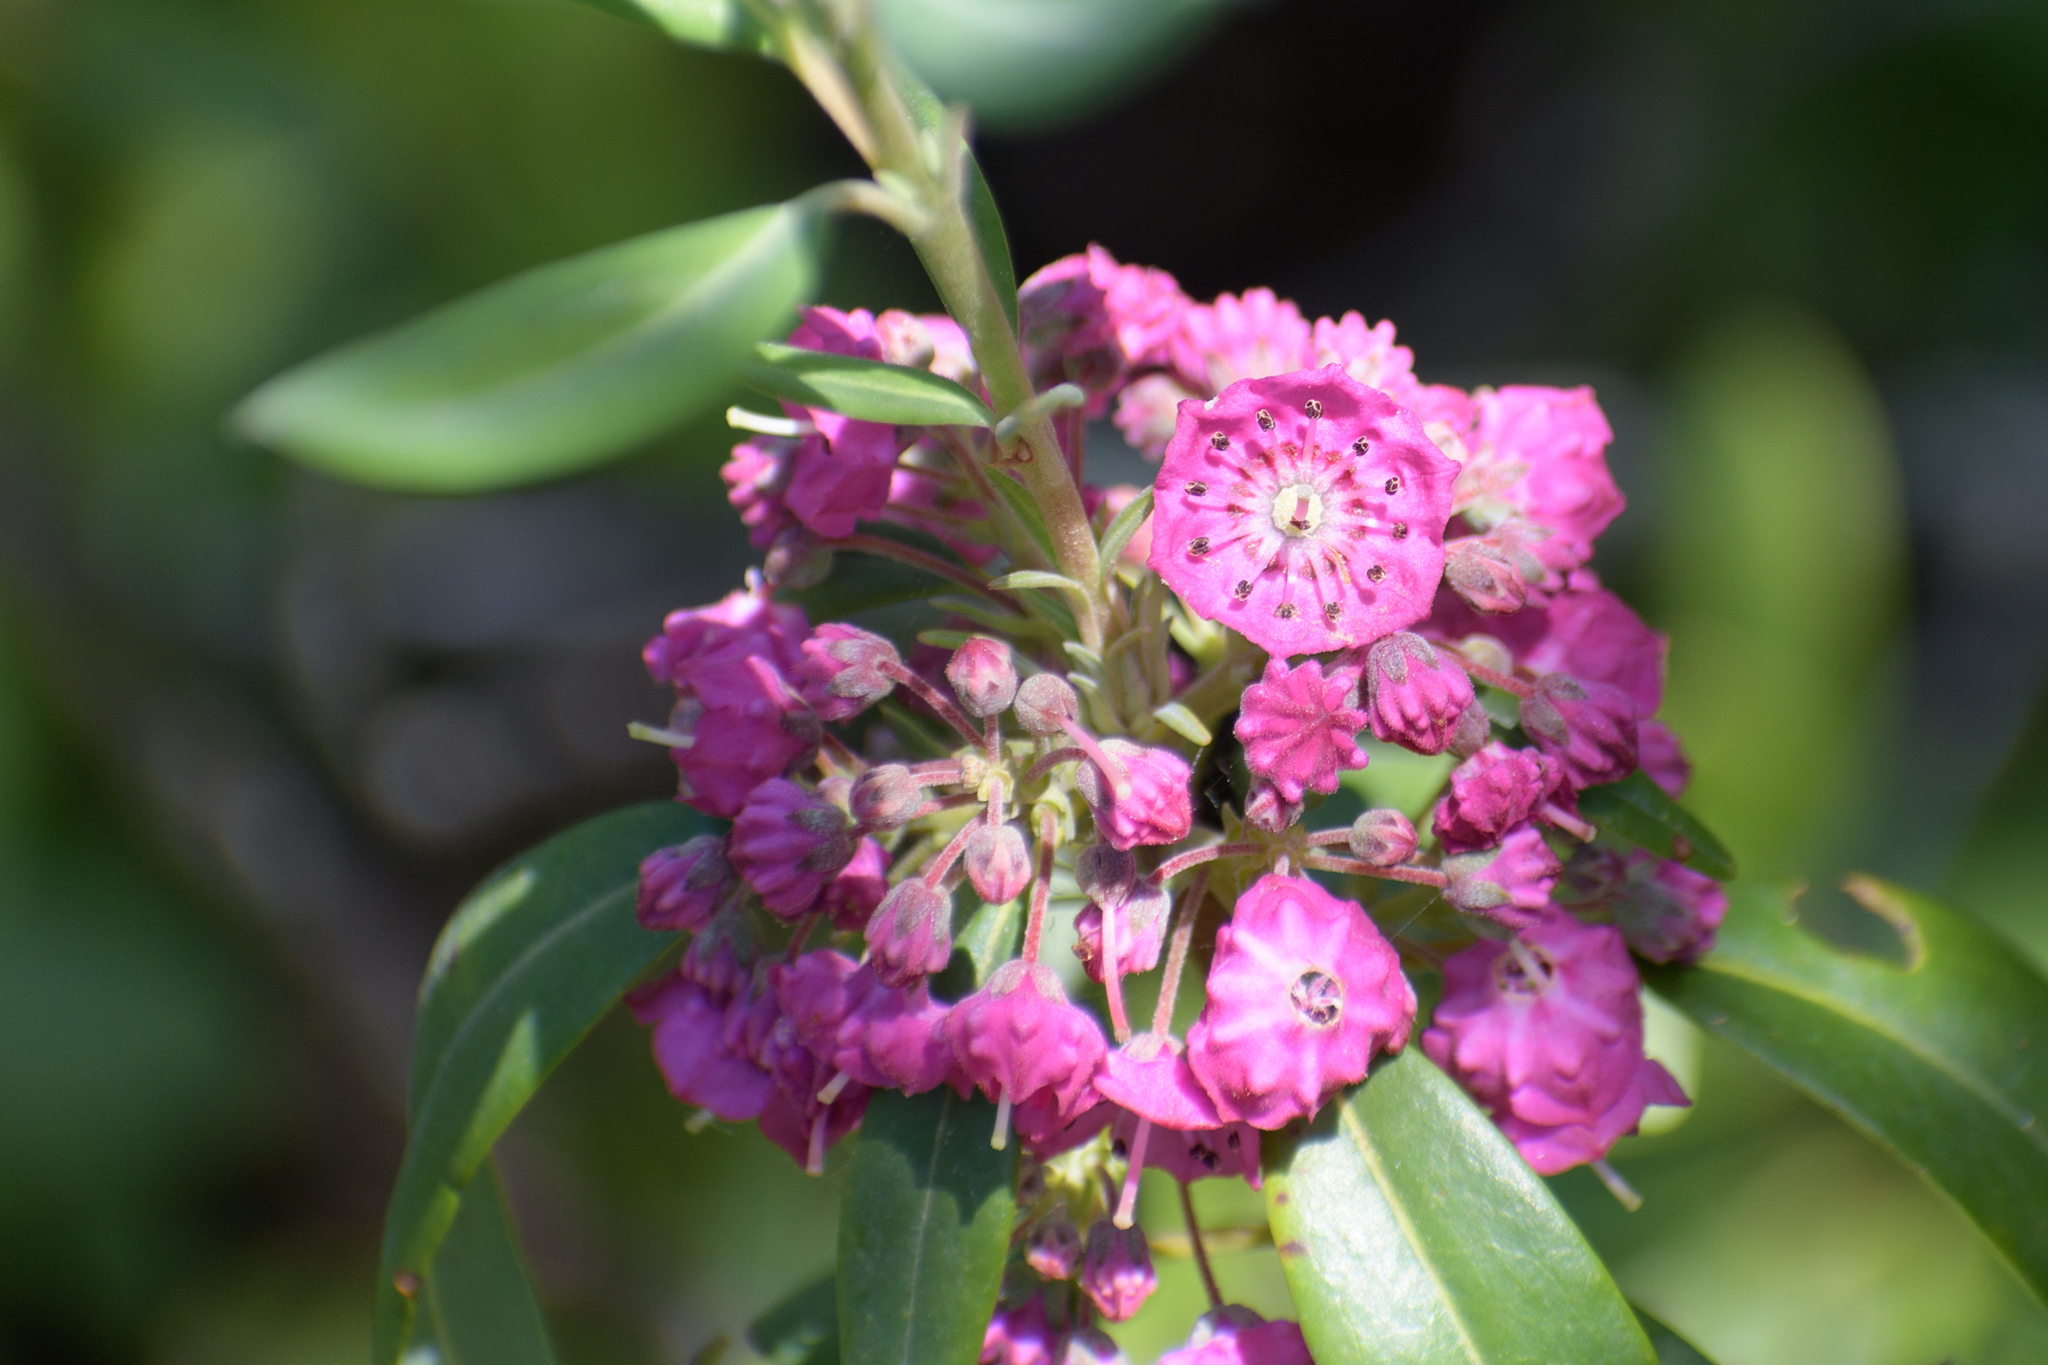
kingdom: Plantae
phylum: Tracheophyta
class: Magnoliopsida
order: Ericales
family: Ericaceae
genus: Kalmia
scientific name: Kalmia angustifolia
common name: Sheep-laurel
